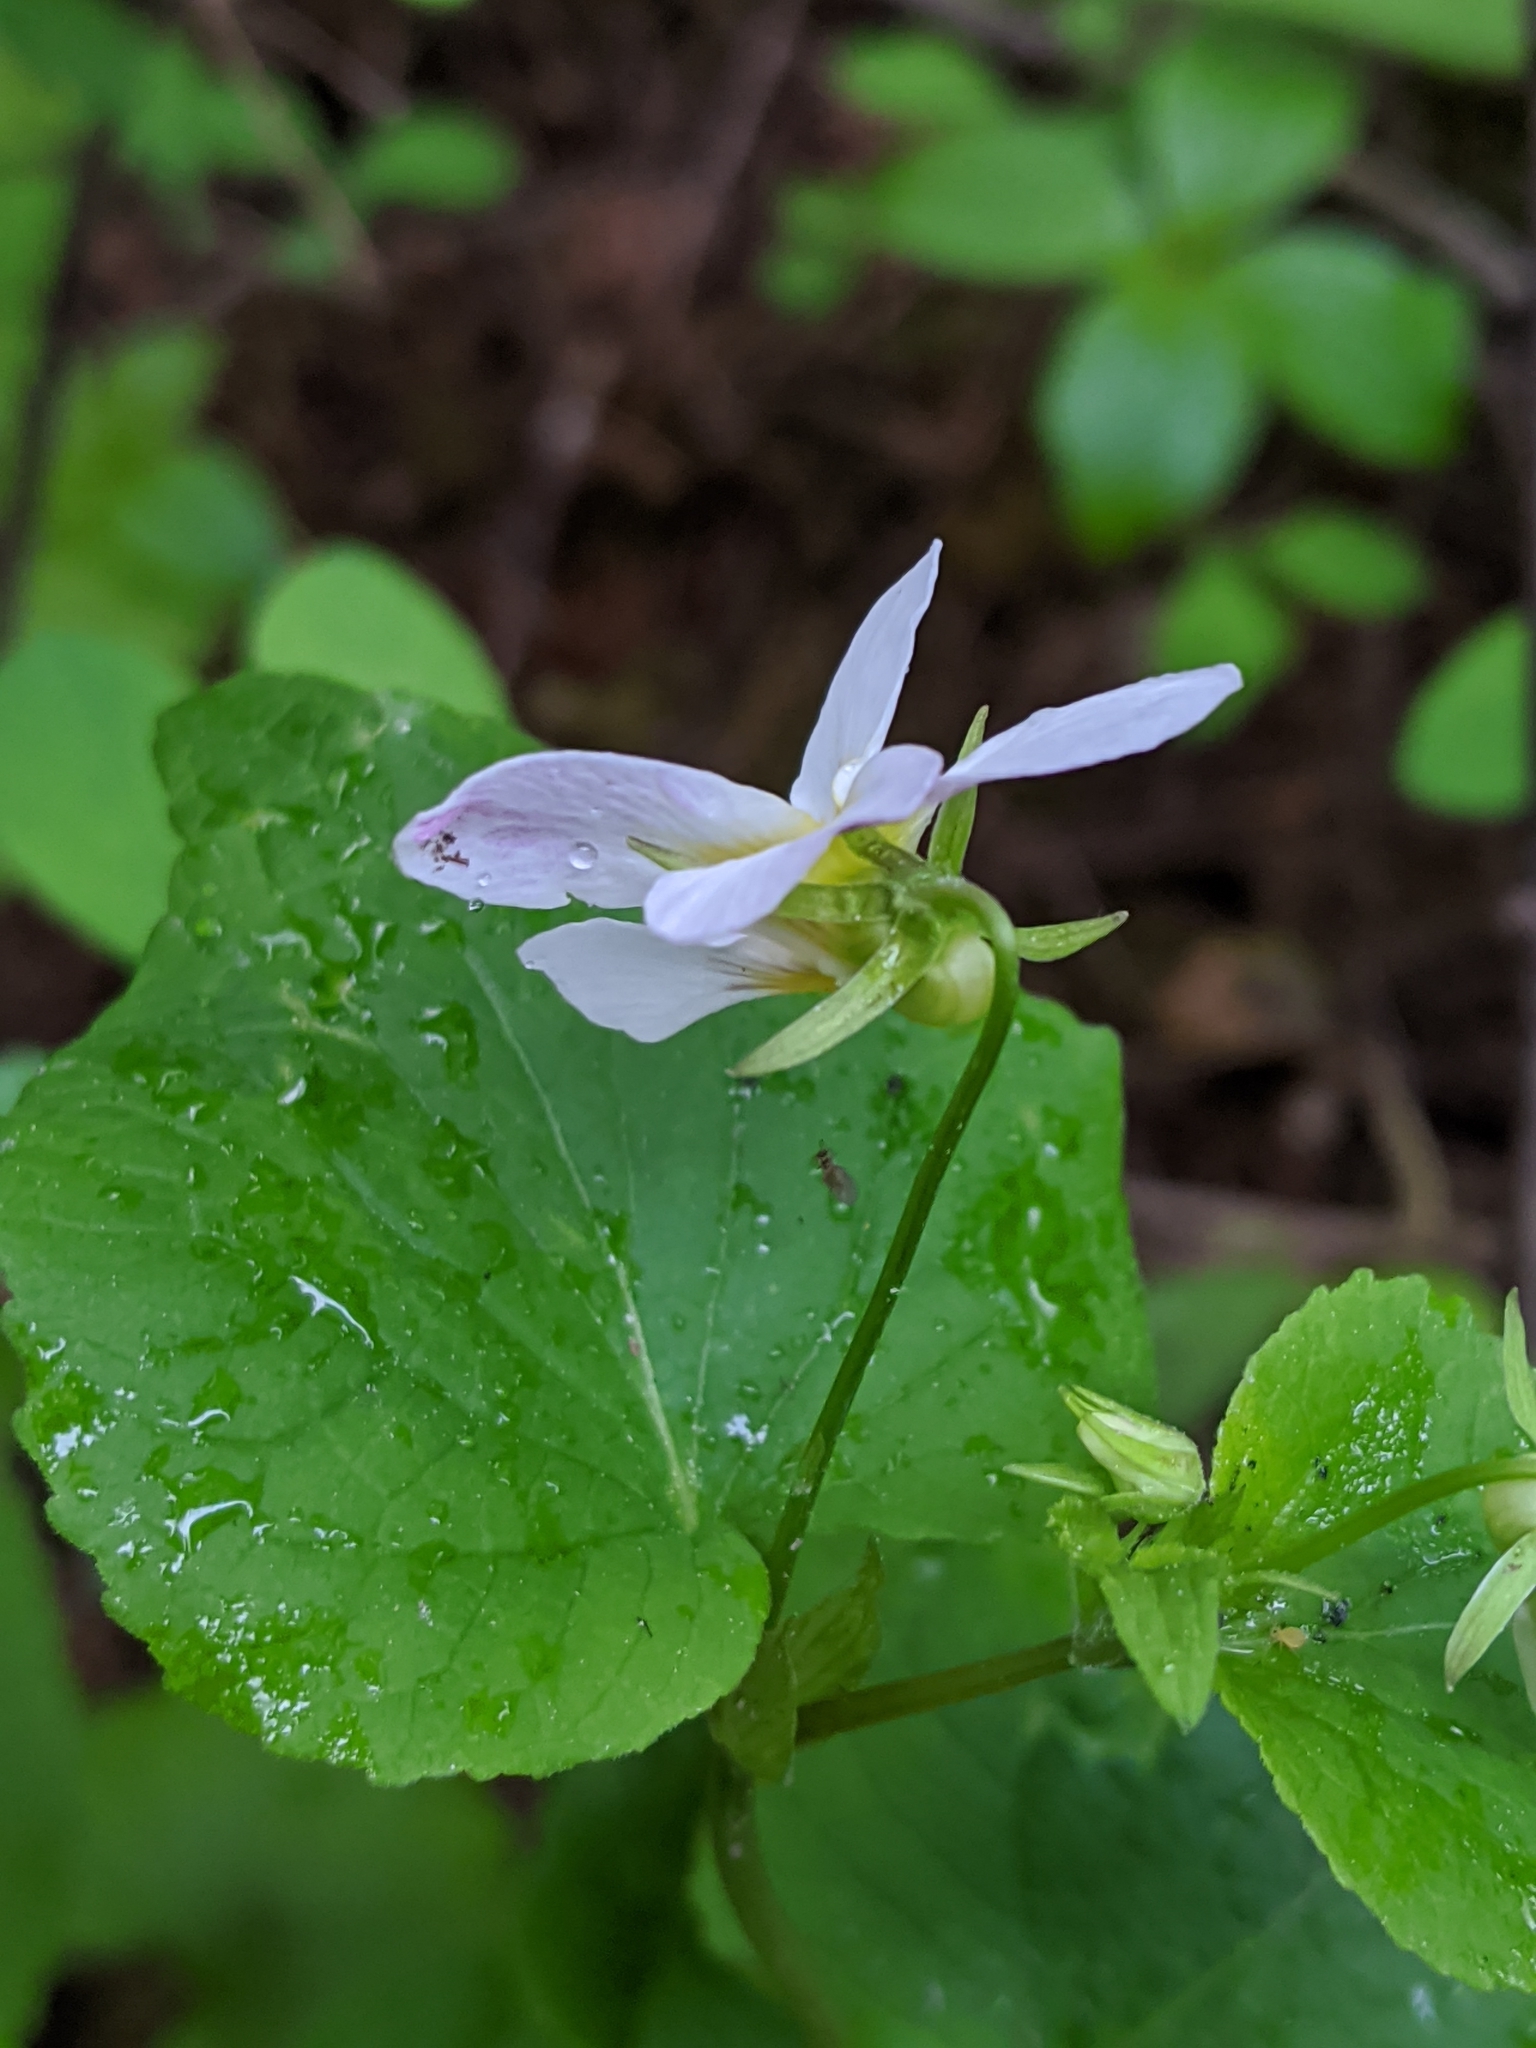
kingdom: Plantae
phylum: Tracheophyta
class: Magnoliopsida
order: Malpighiales
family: Violaceae
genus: Viola
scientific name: Viola canadensis
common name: Canada violet
